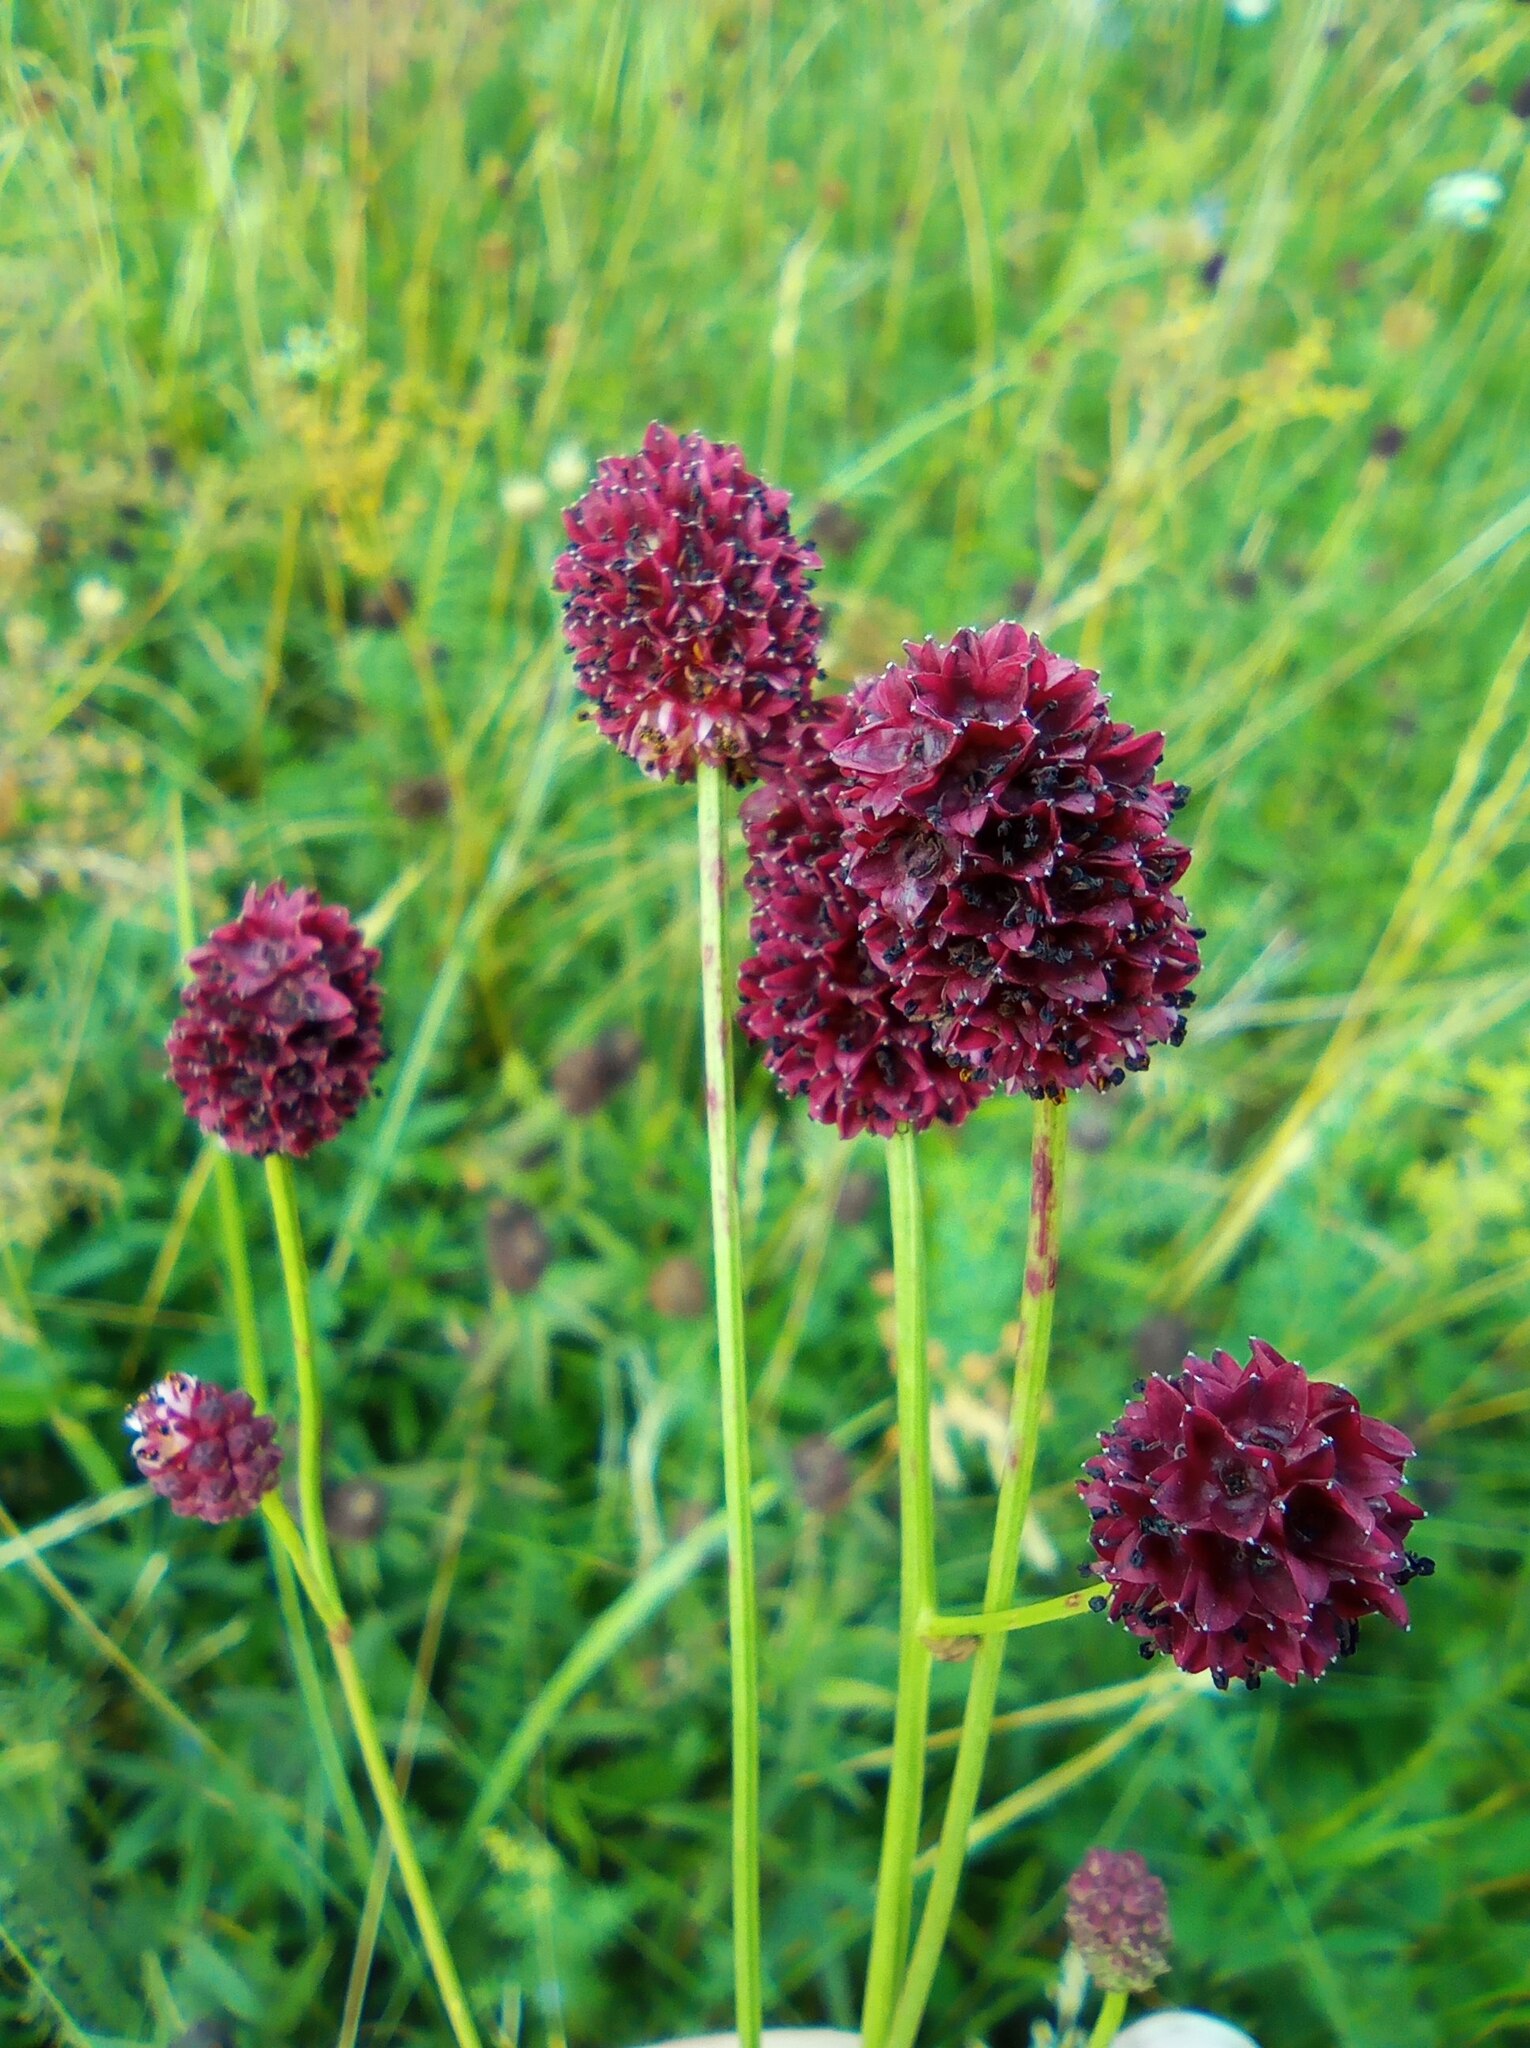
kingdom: Plantae
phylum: Tracheophyta
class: Magnoliopsida
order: Rosales
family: Rosaceae
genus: Sanguisorba
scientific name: Sanguisorba officinalis
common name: Great burnet
